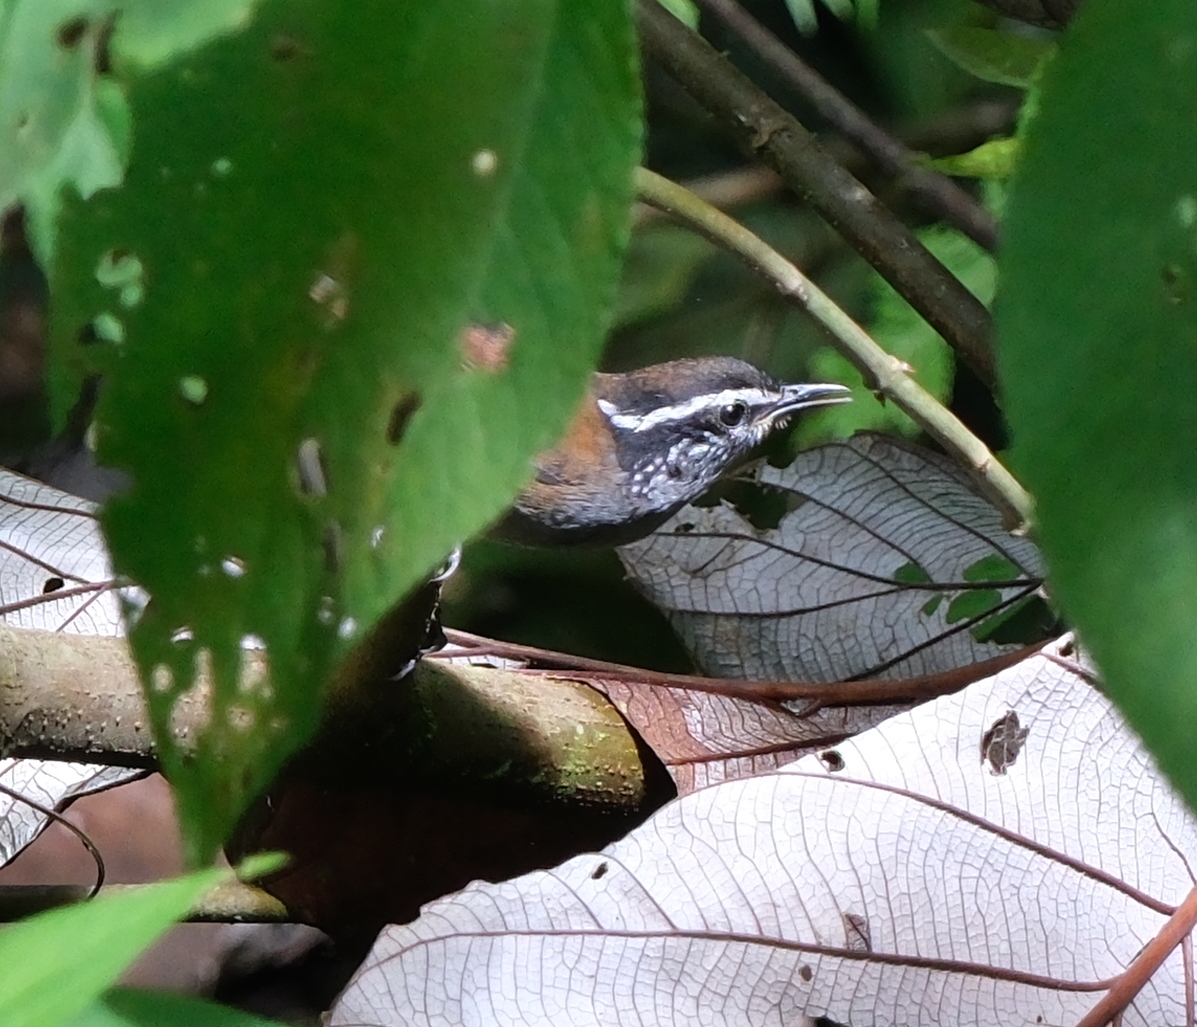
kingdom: Animalia
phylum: Chordata
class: Aves
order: Passeriformes
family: Troglodytidae
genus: Henicorhina
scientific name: Henicorhina leucophrys
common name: Gray-breasted wood-wren
